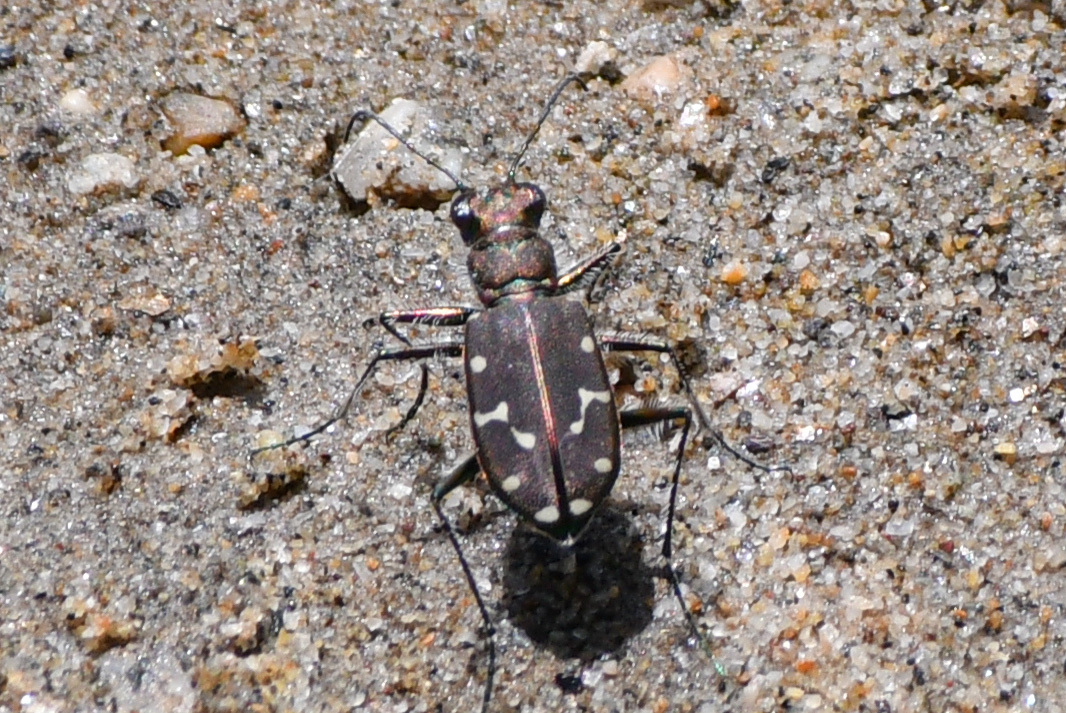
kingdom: Animalia
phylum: Arthropoda
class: Insecta
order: Coleoptera
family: Carabidae
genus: Cicindela
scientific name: Cicindela oregona
